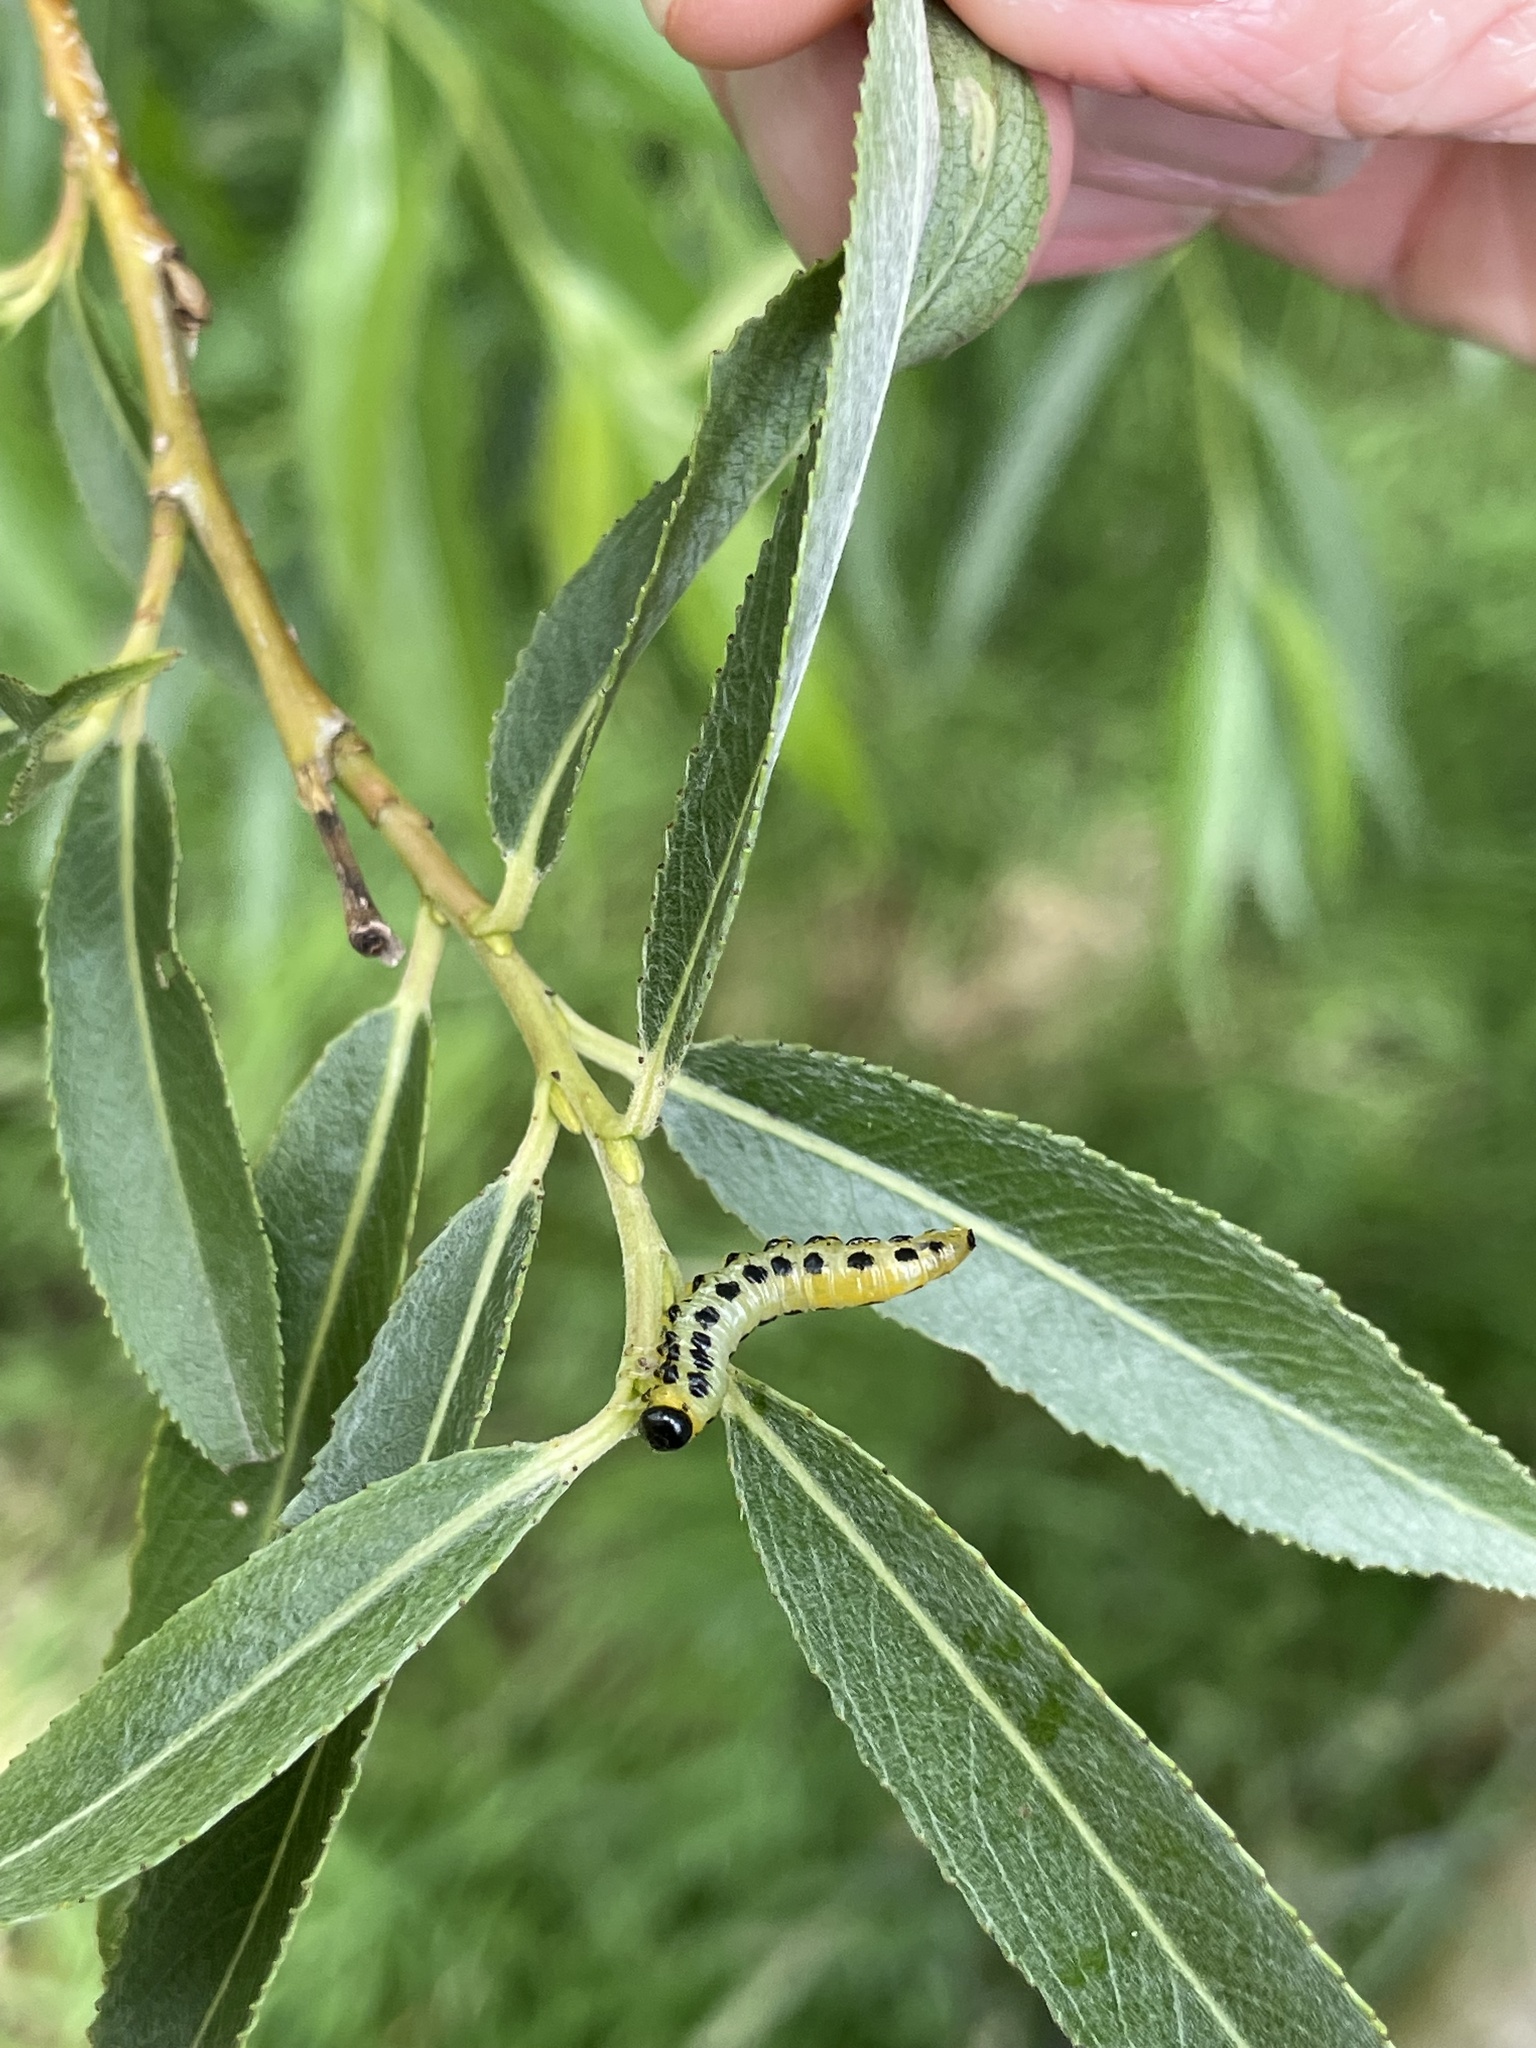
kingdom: Animalia
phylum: Arthropoda
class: Insecta
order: Hymenoptera
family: Tenthredinidae
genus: Craesus
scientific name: Craesus septentrionalis
